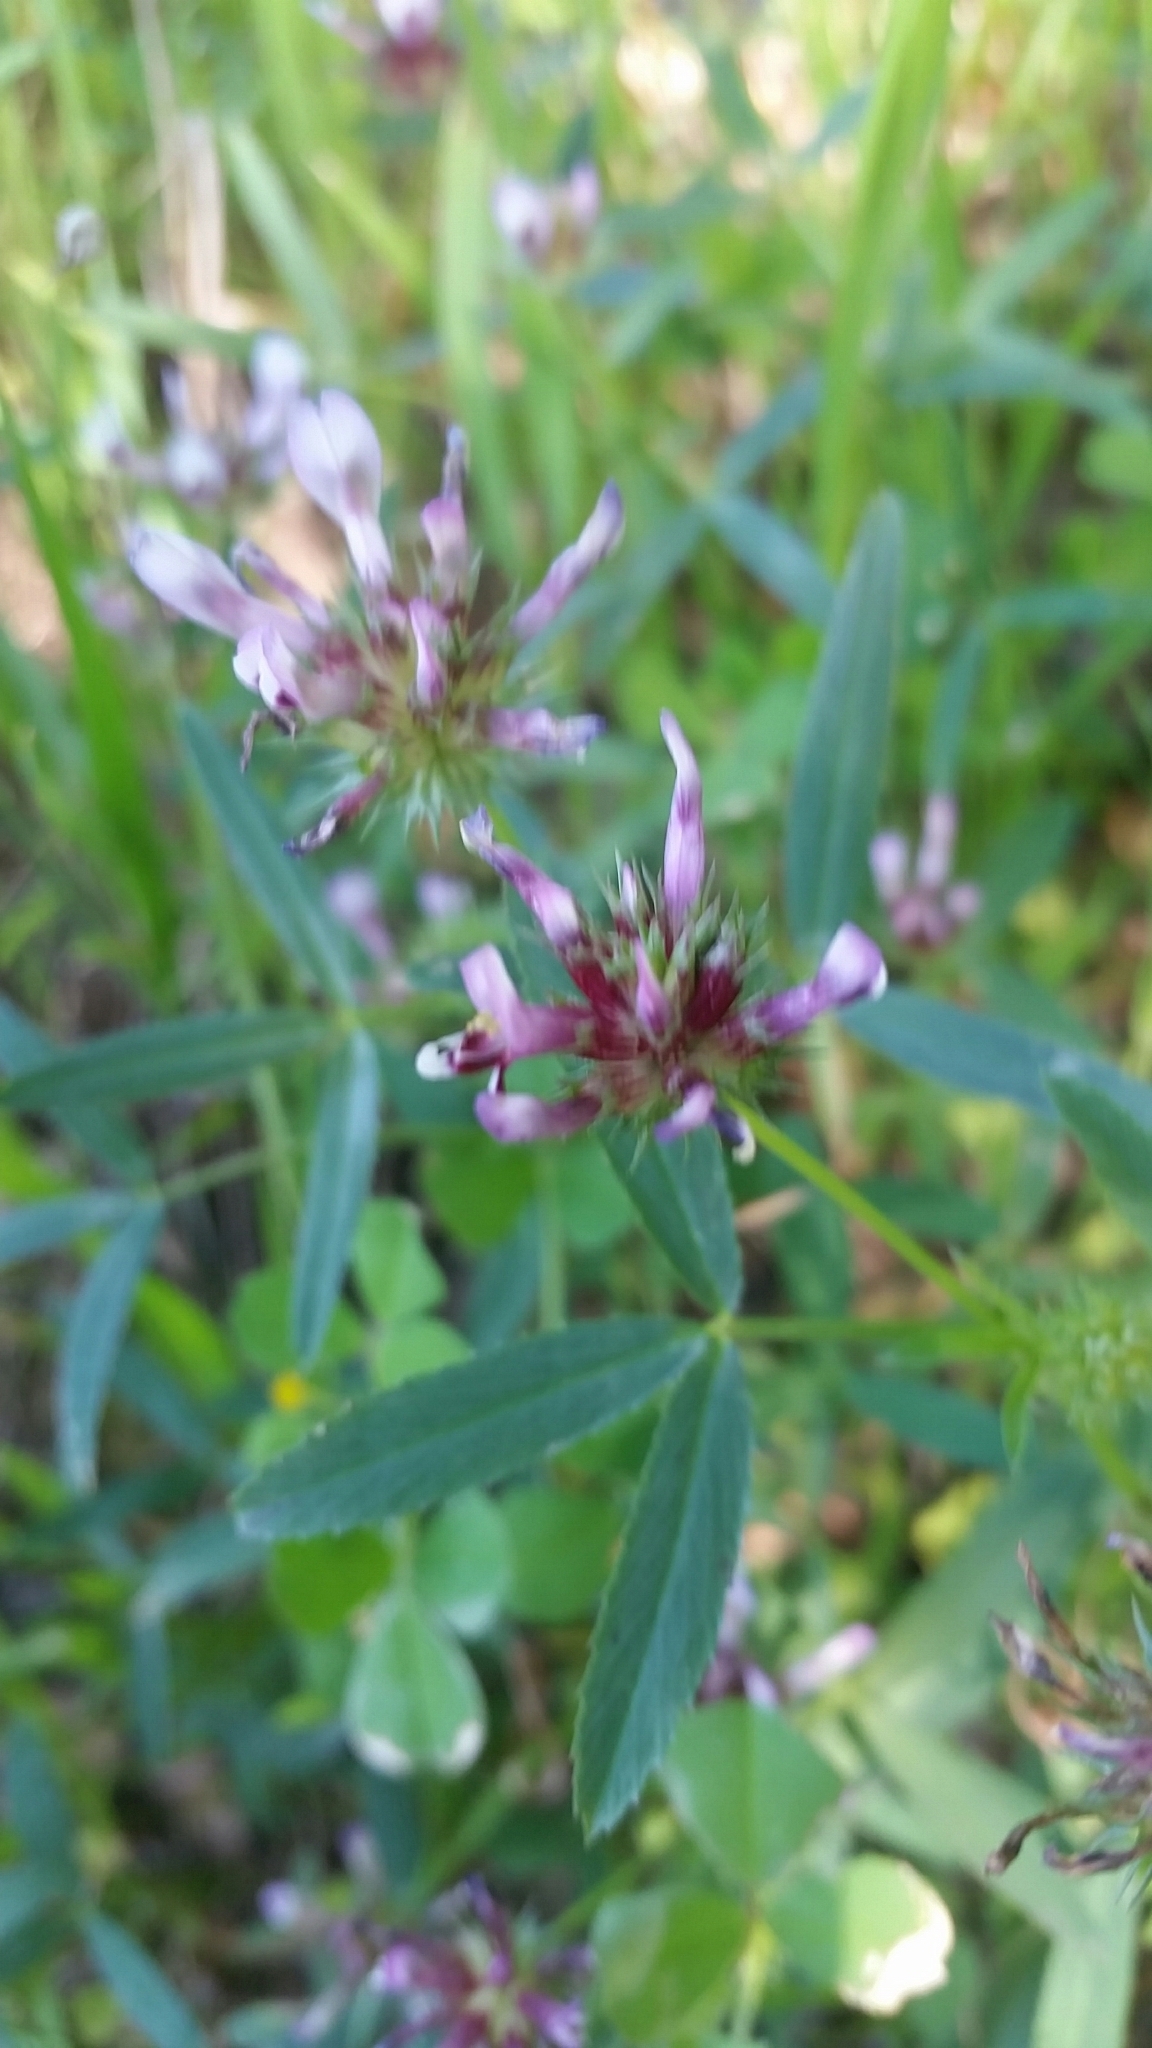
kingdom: Plantae
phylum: Tracheophyta
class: Magnoliopsida
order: Fabales
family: Fabaceae
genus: Trifolium
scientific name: Trifolium willdenovii
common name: Tomcat clover
